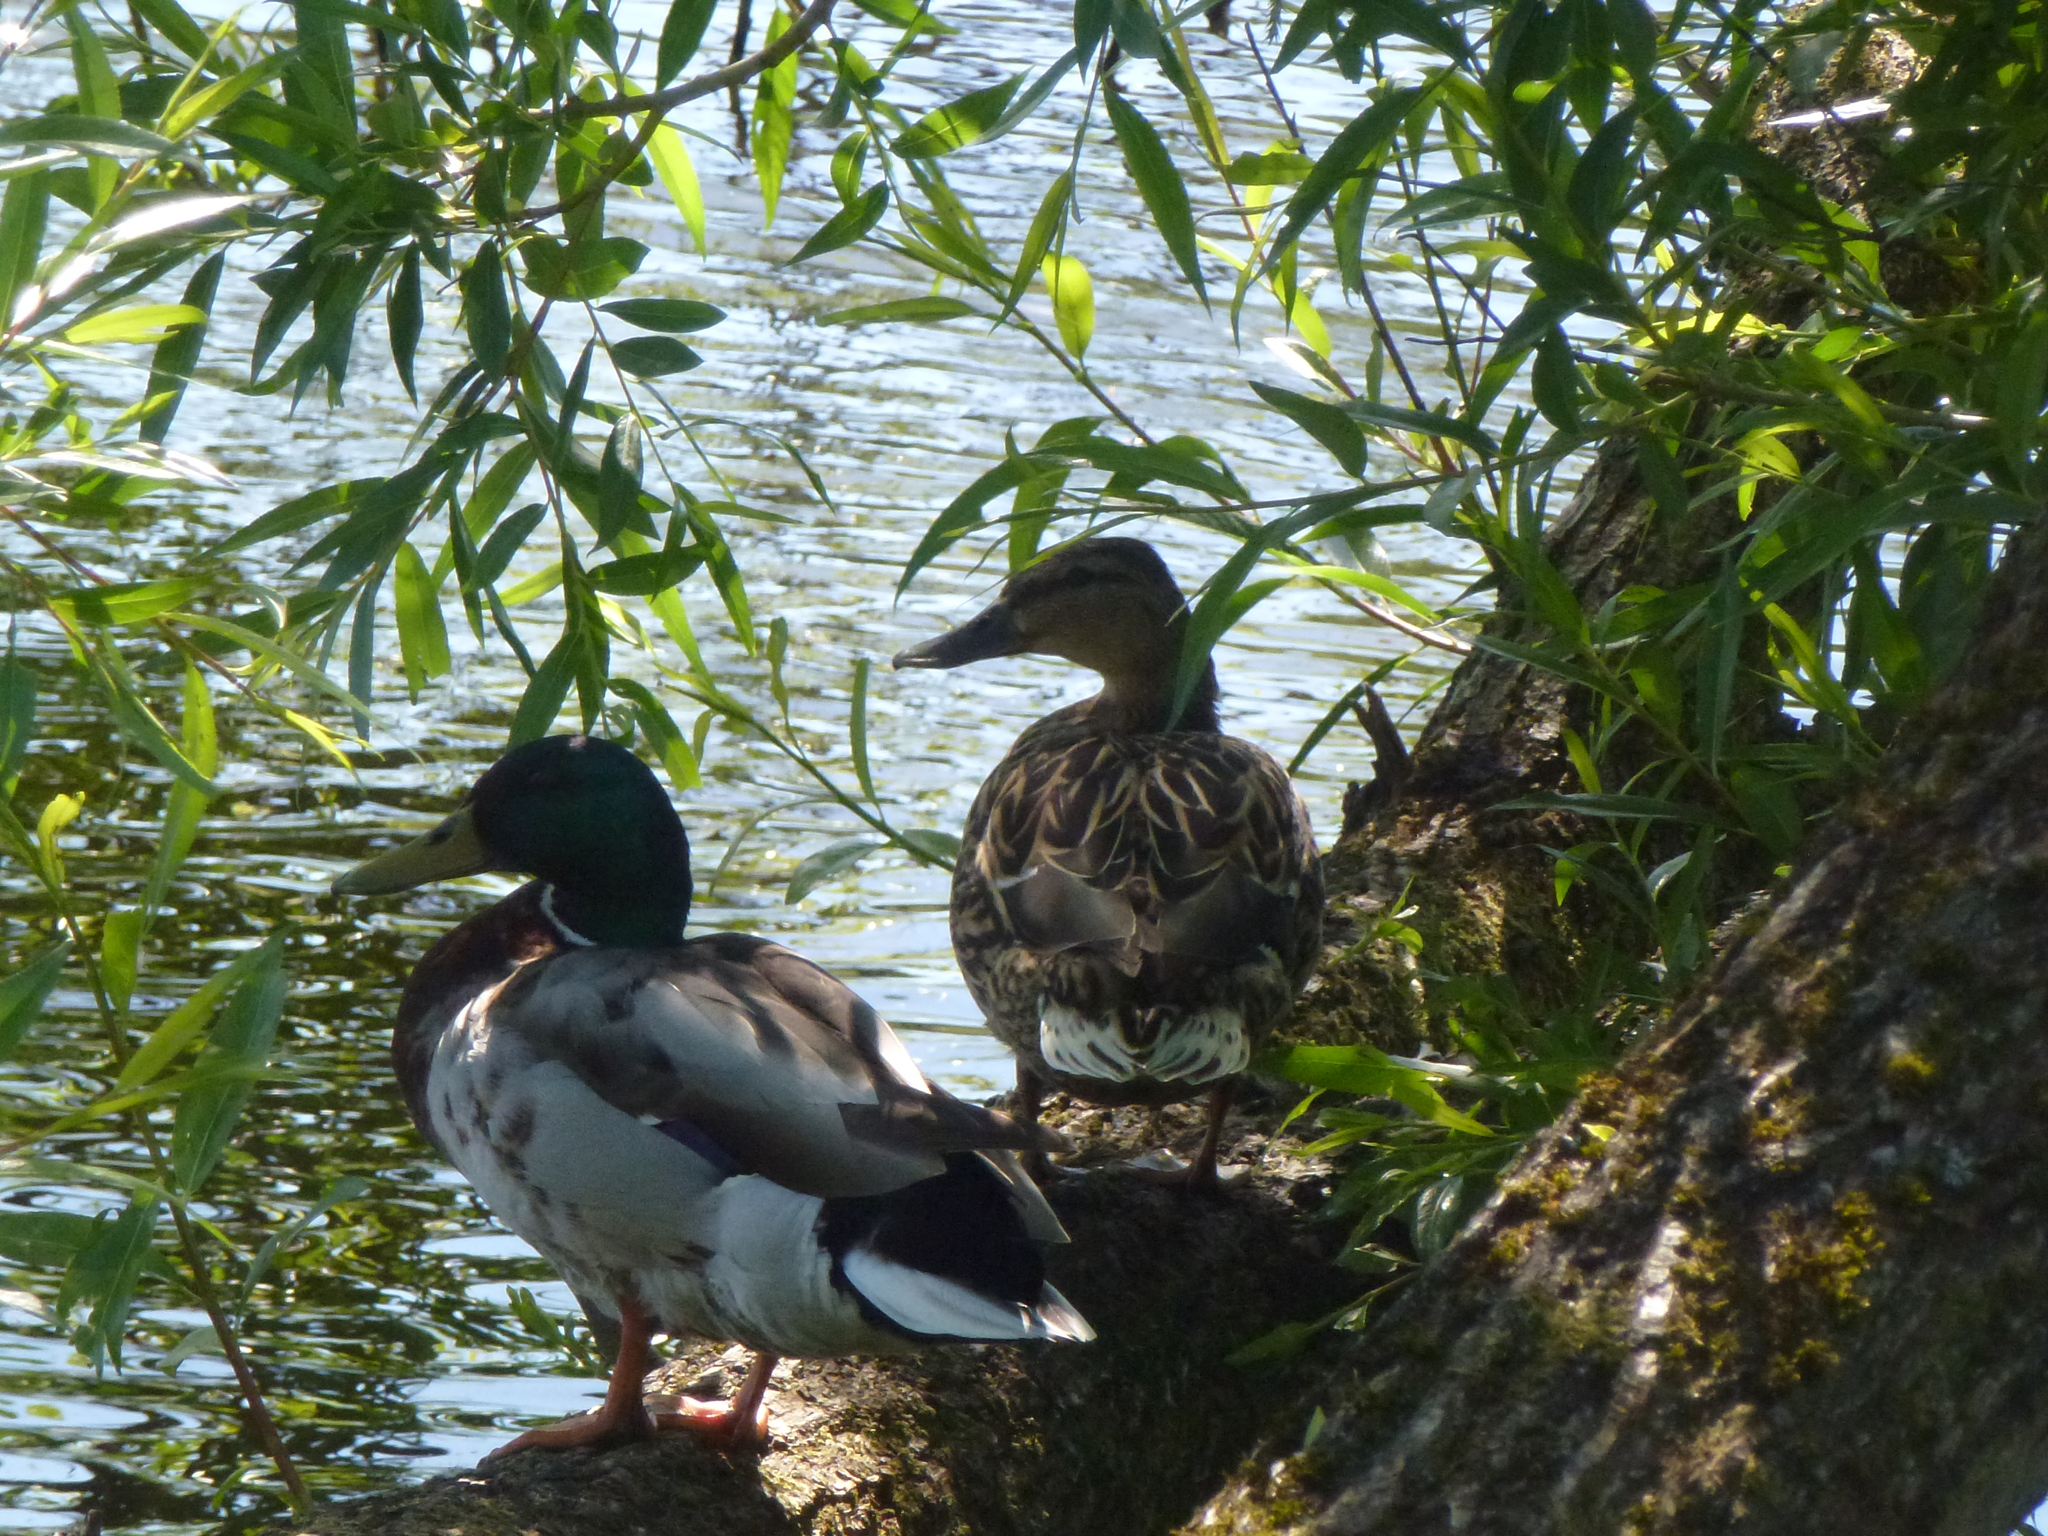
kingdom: Animalia
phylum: Chordata
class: Aves
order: Anseriformes
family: Anatidae
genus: Anas
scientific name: Anas platyrhynchos
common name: Mallard
